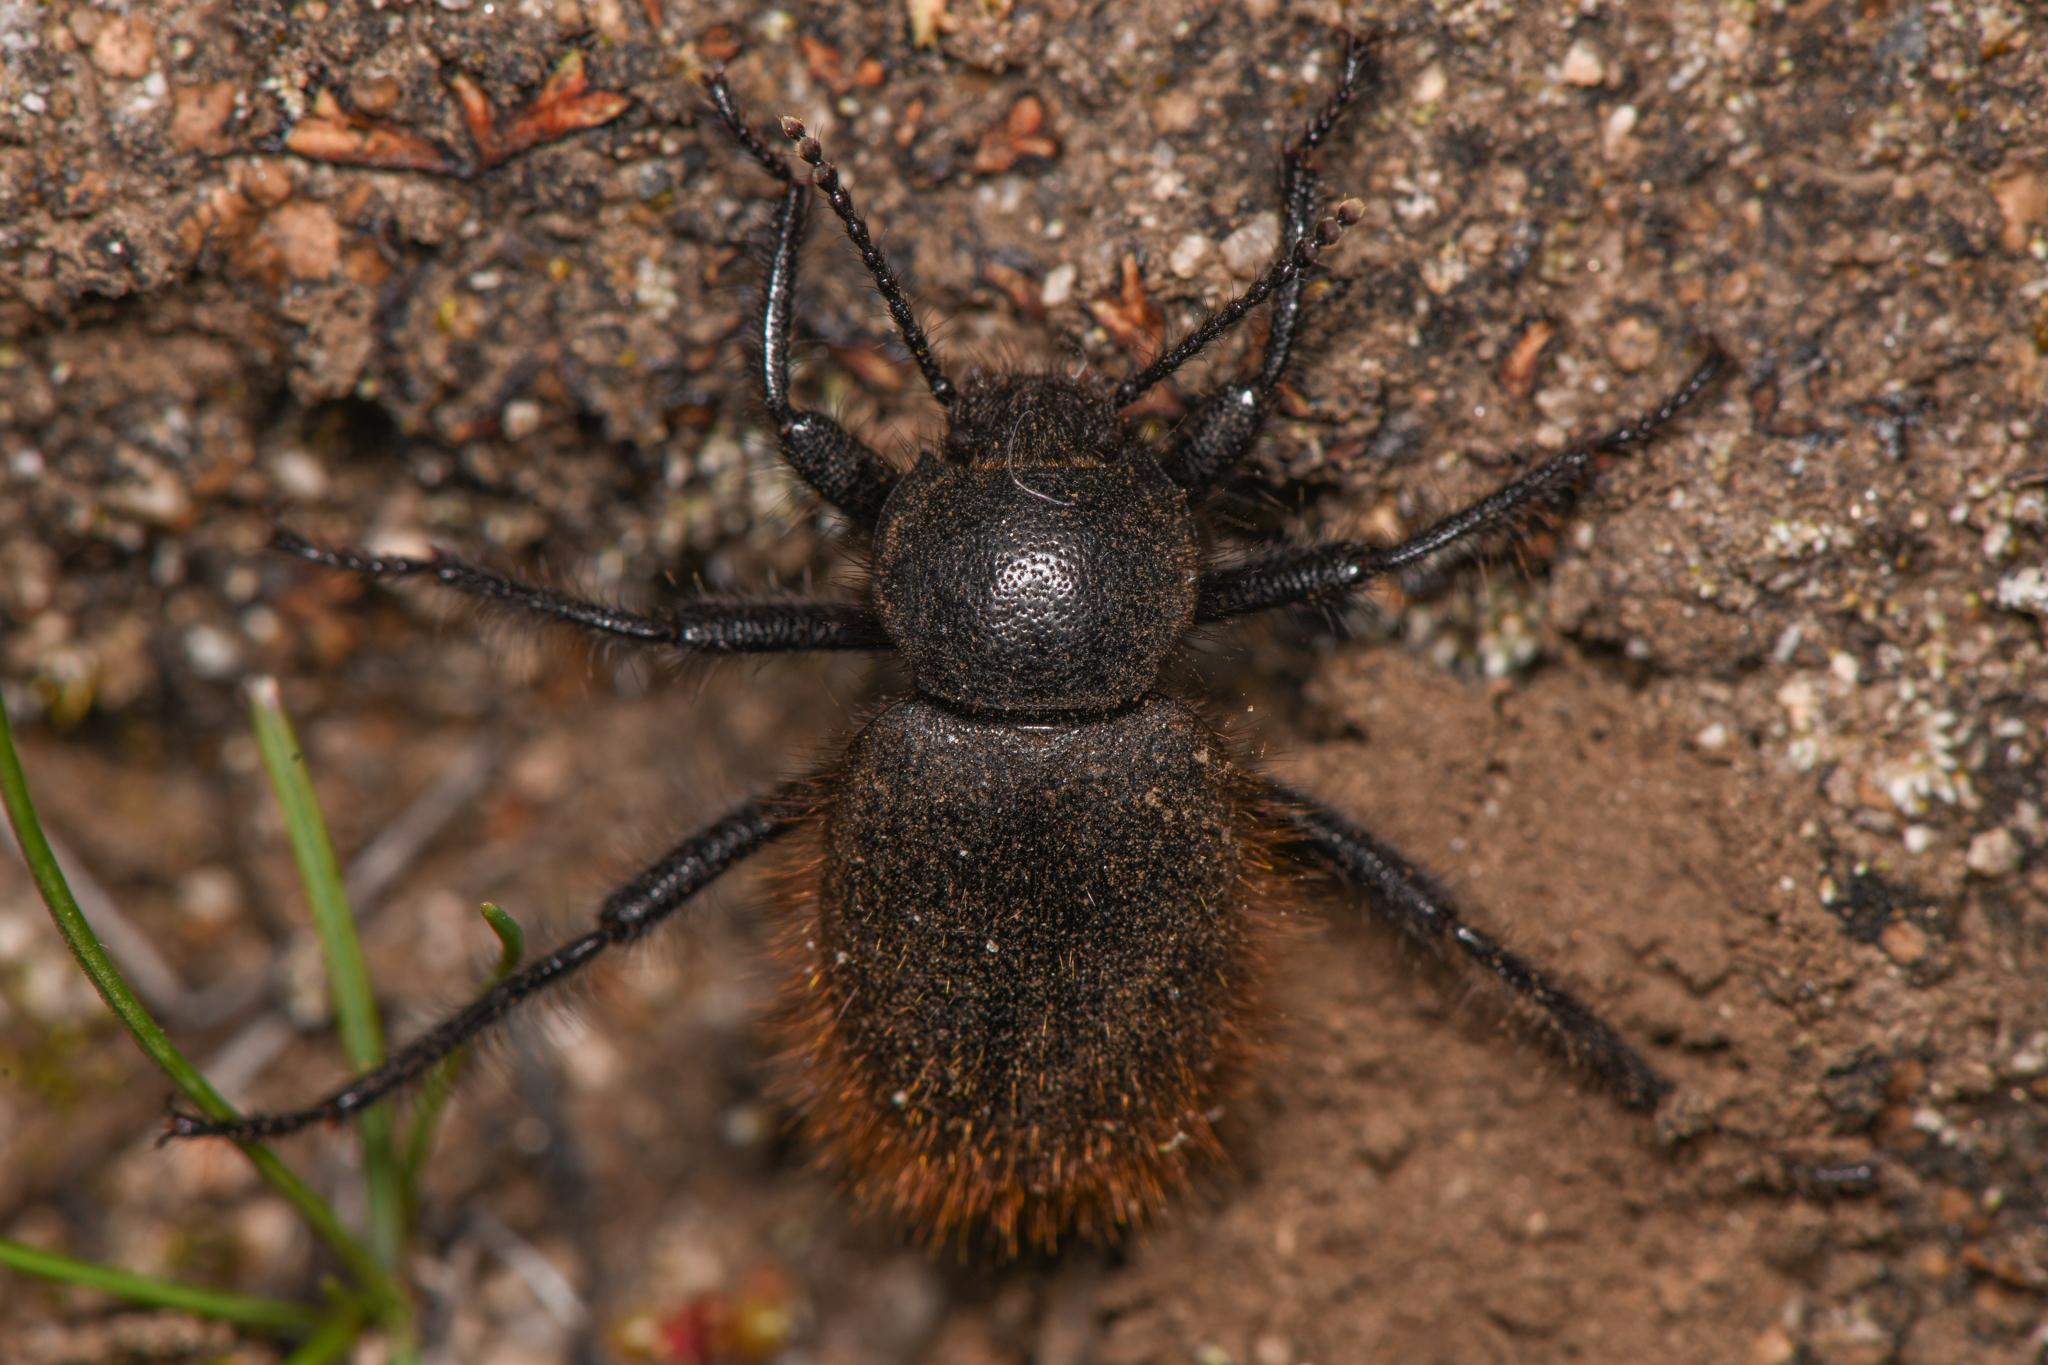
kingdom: Animalia
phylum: Arthropoda
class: Insecta
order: Coleoptera
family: Tenebrionidae
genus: Eleodes
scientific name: Eleodes osculans
